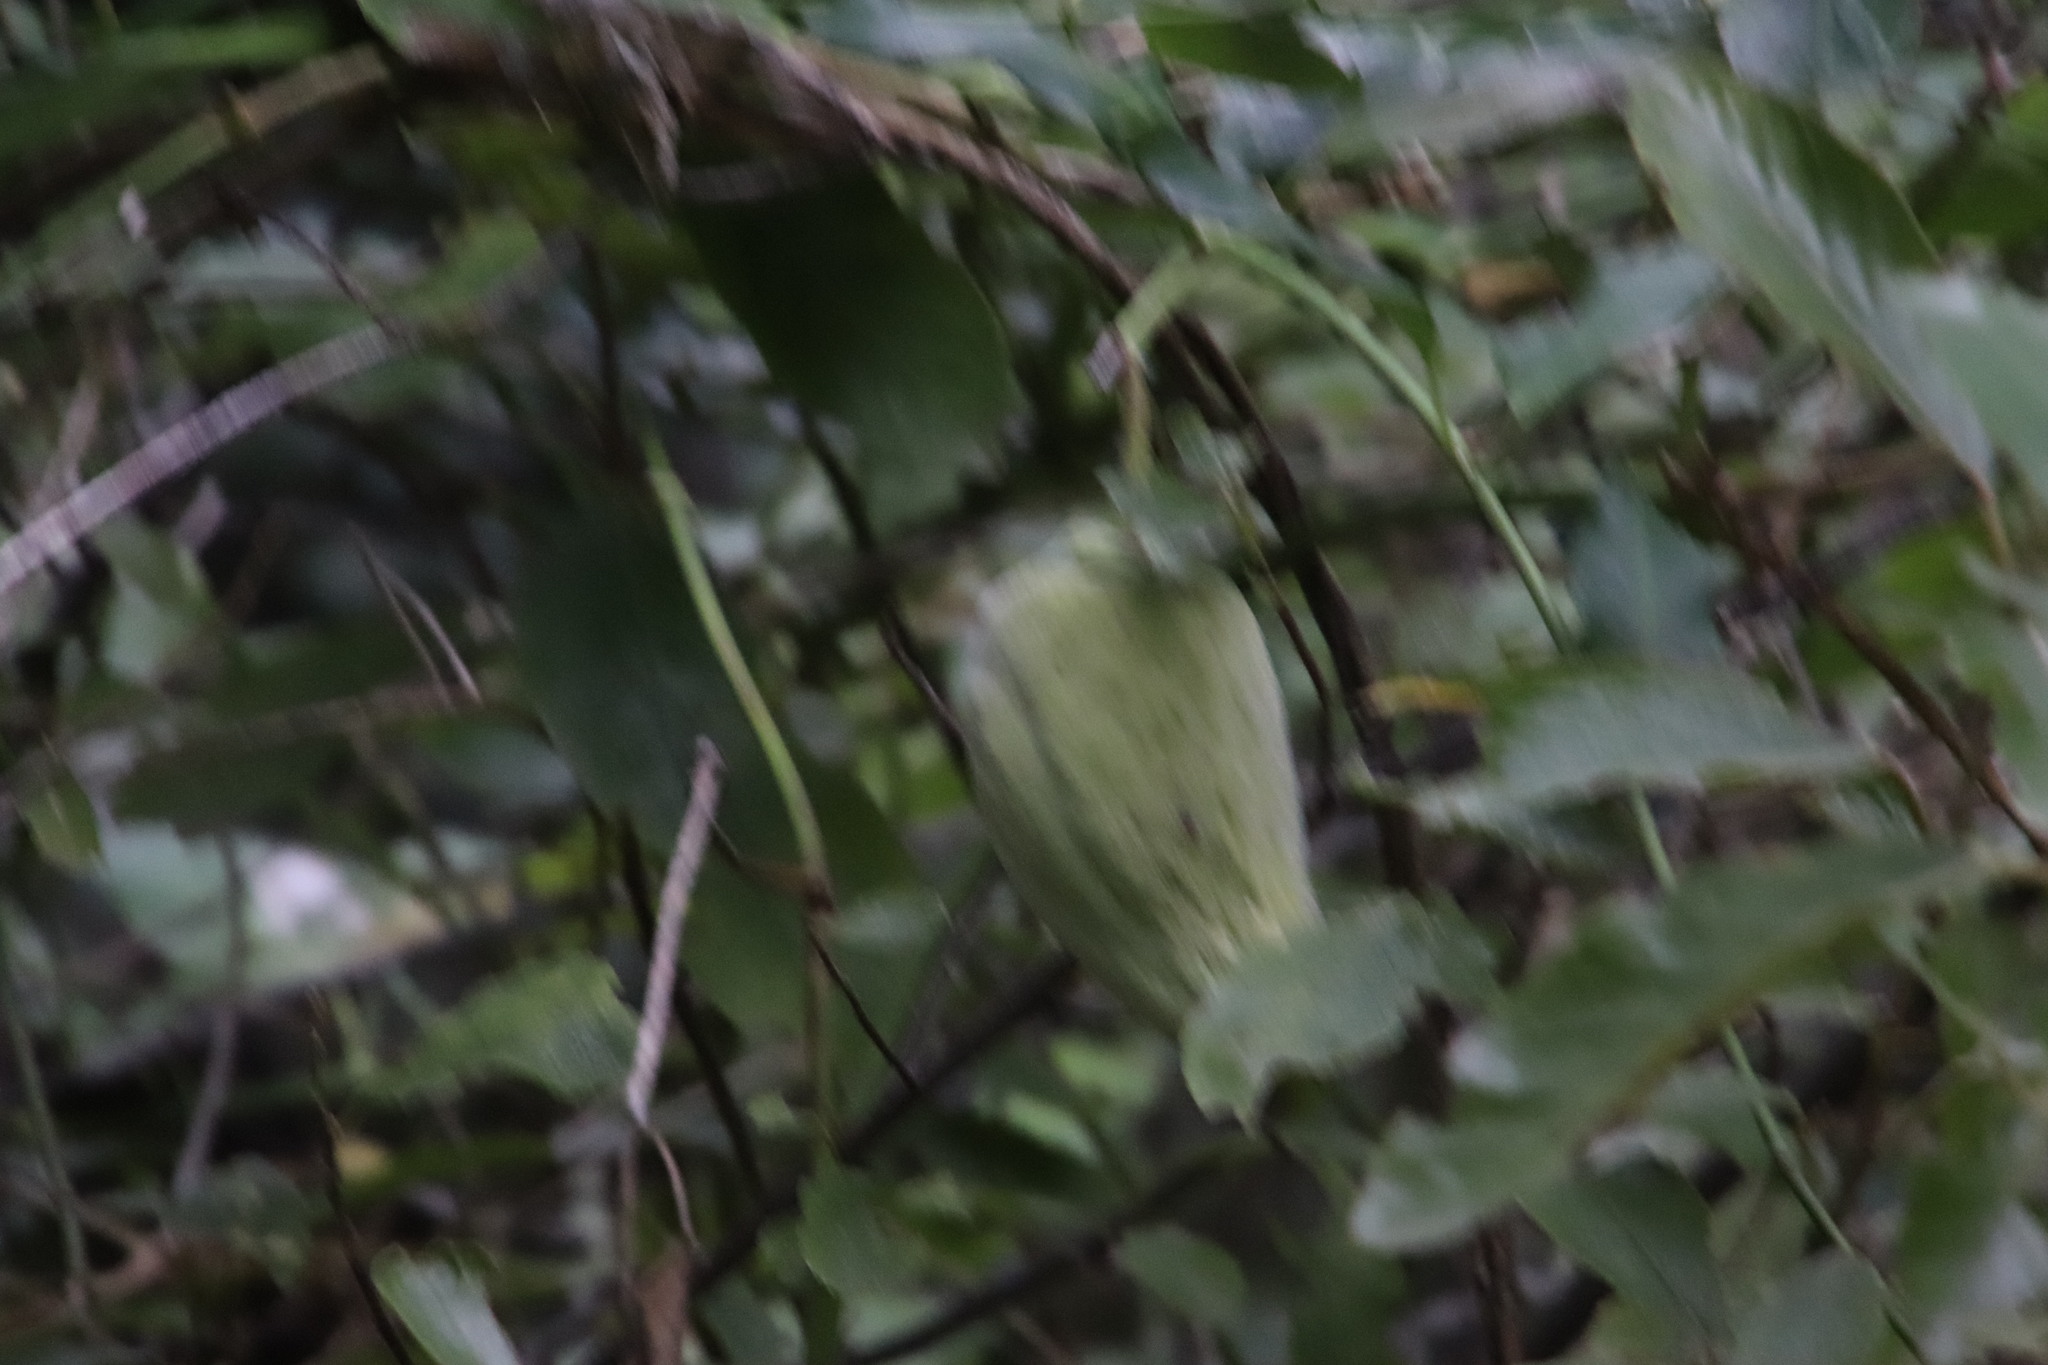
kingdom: Plantae
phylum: Tracheophyta
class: Magnoliopsida
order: Gentianales
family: Apocynaceae
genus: Araujia
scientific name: Araujia sericifera
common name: White bladderflower
